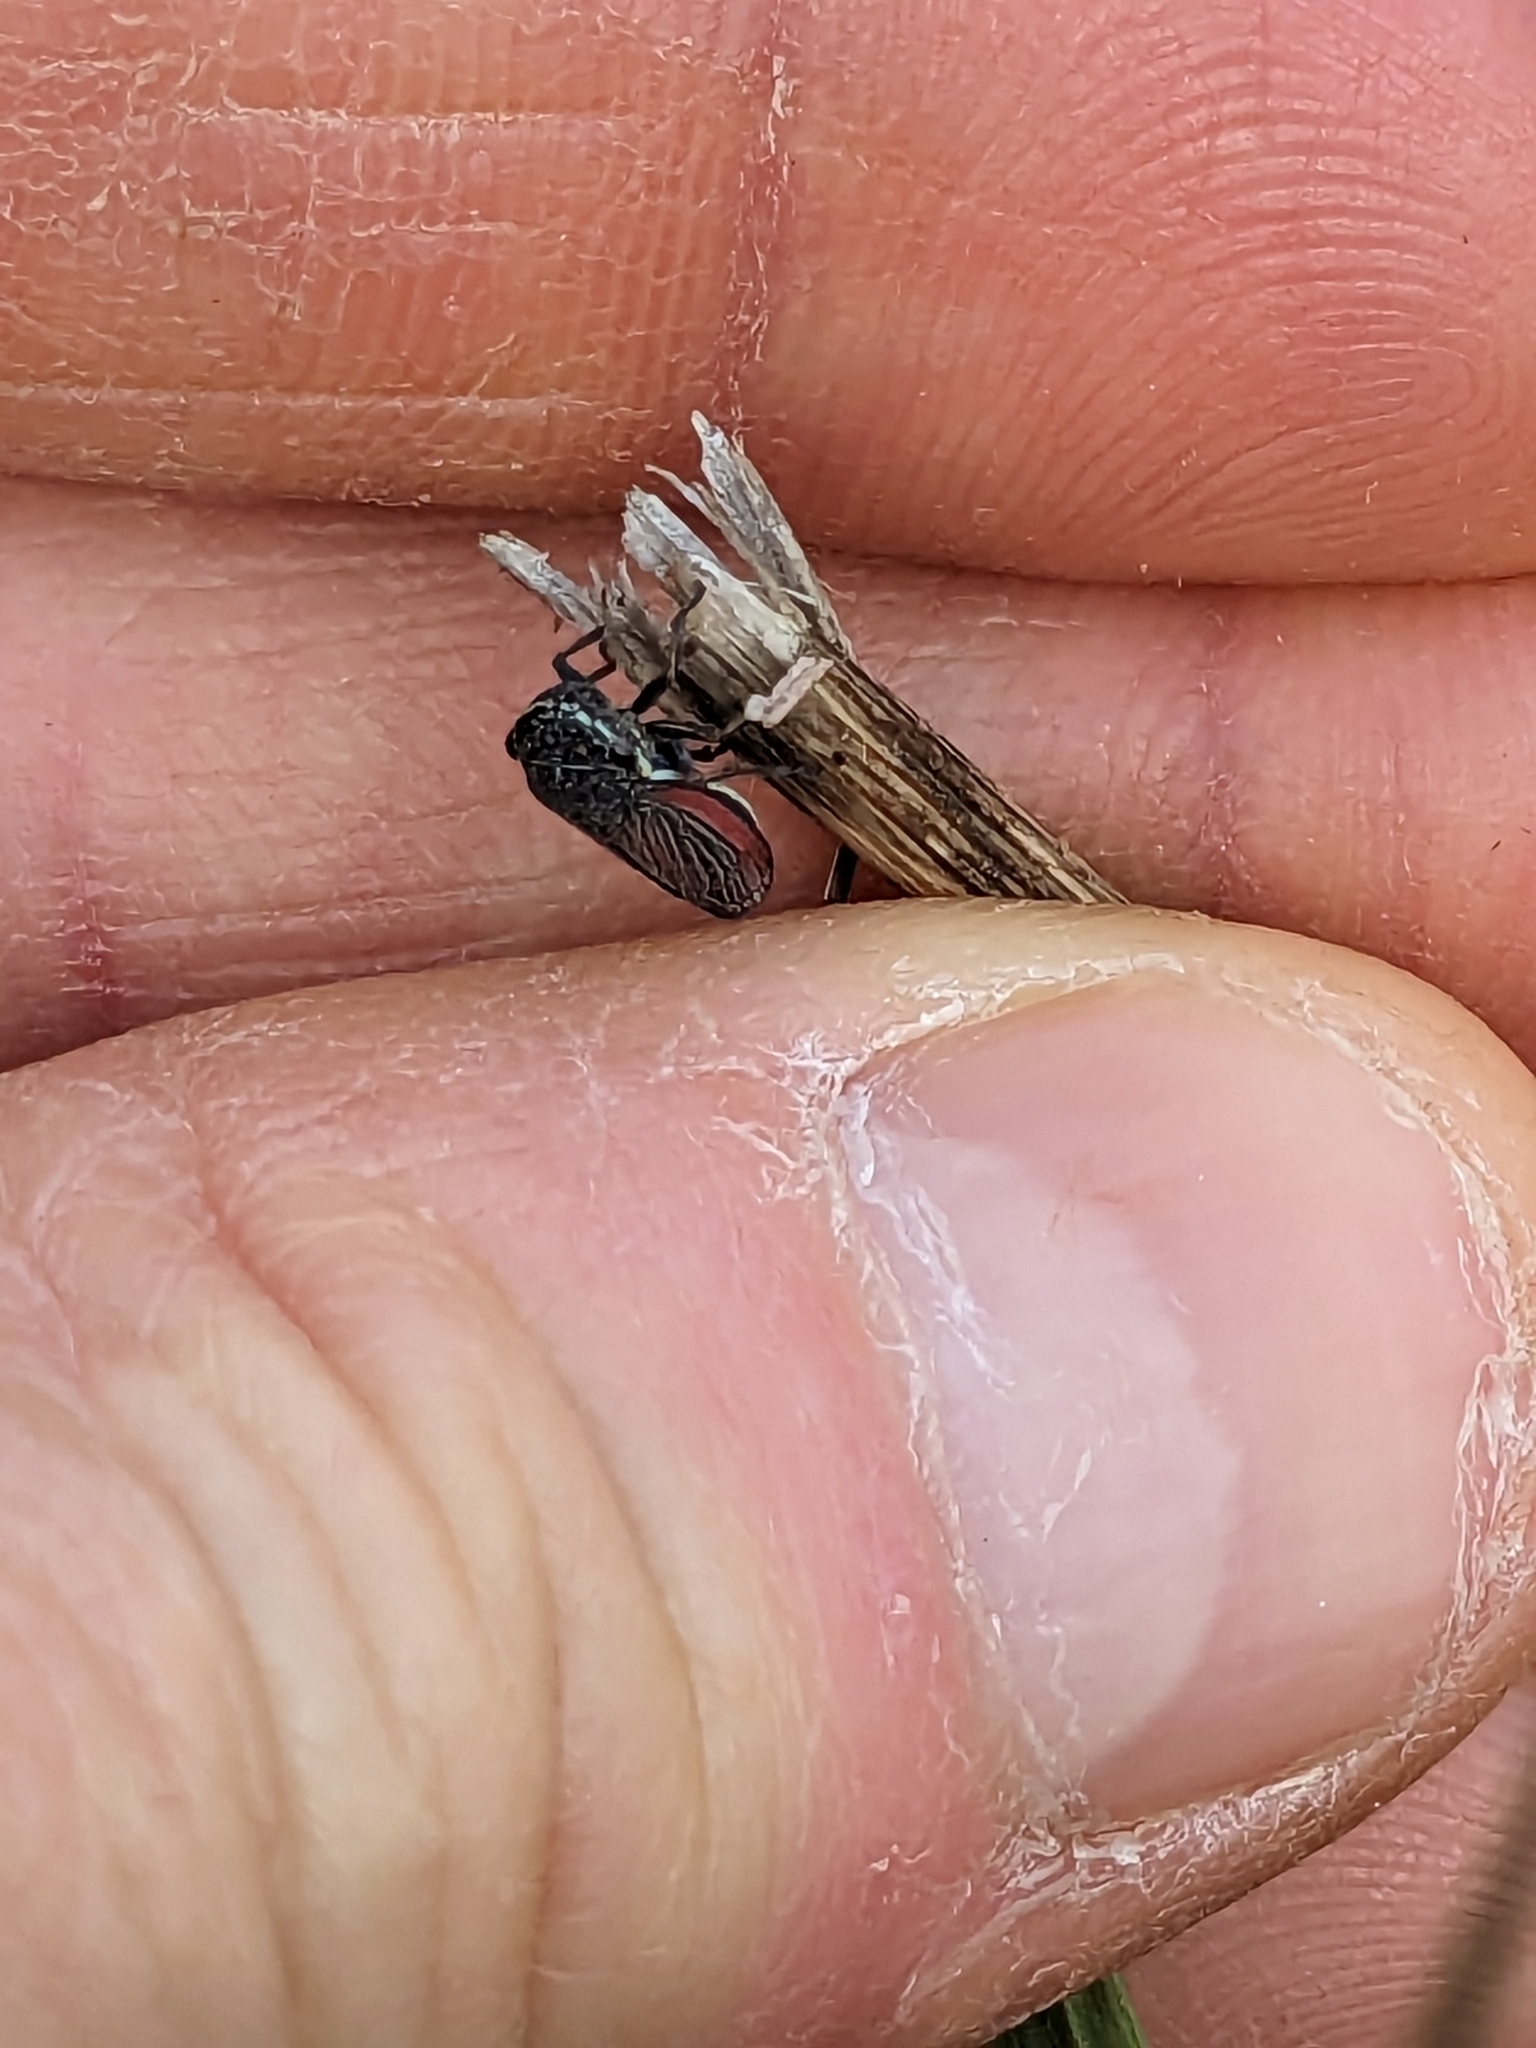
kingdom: Animalia
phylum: Arthropoda
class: Insecta
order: Hemiptera
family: Cicadellidae
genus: Cuerna
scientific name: Cuerna striata
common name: Striped leafhopper
